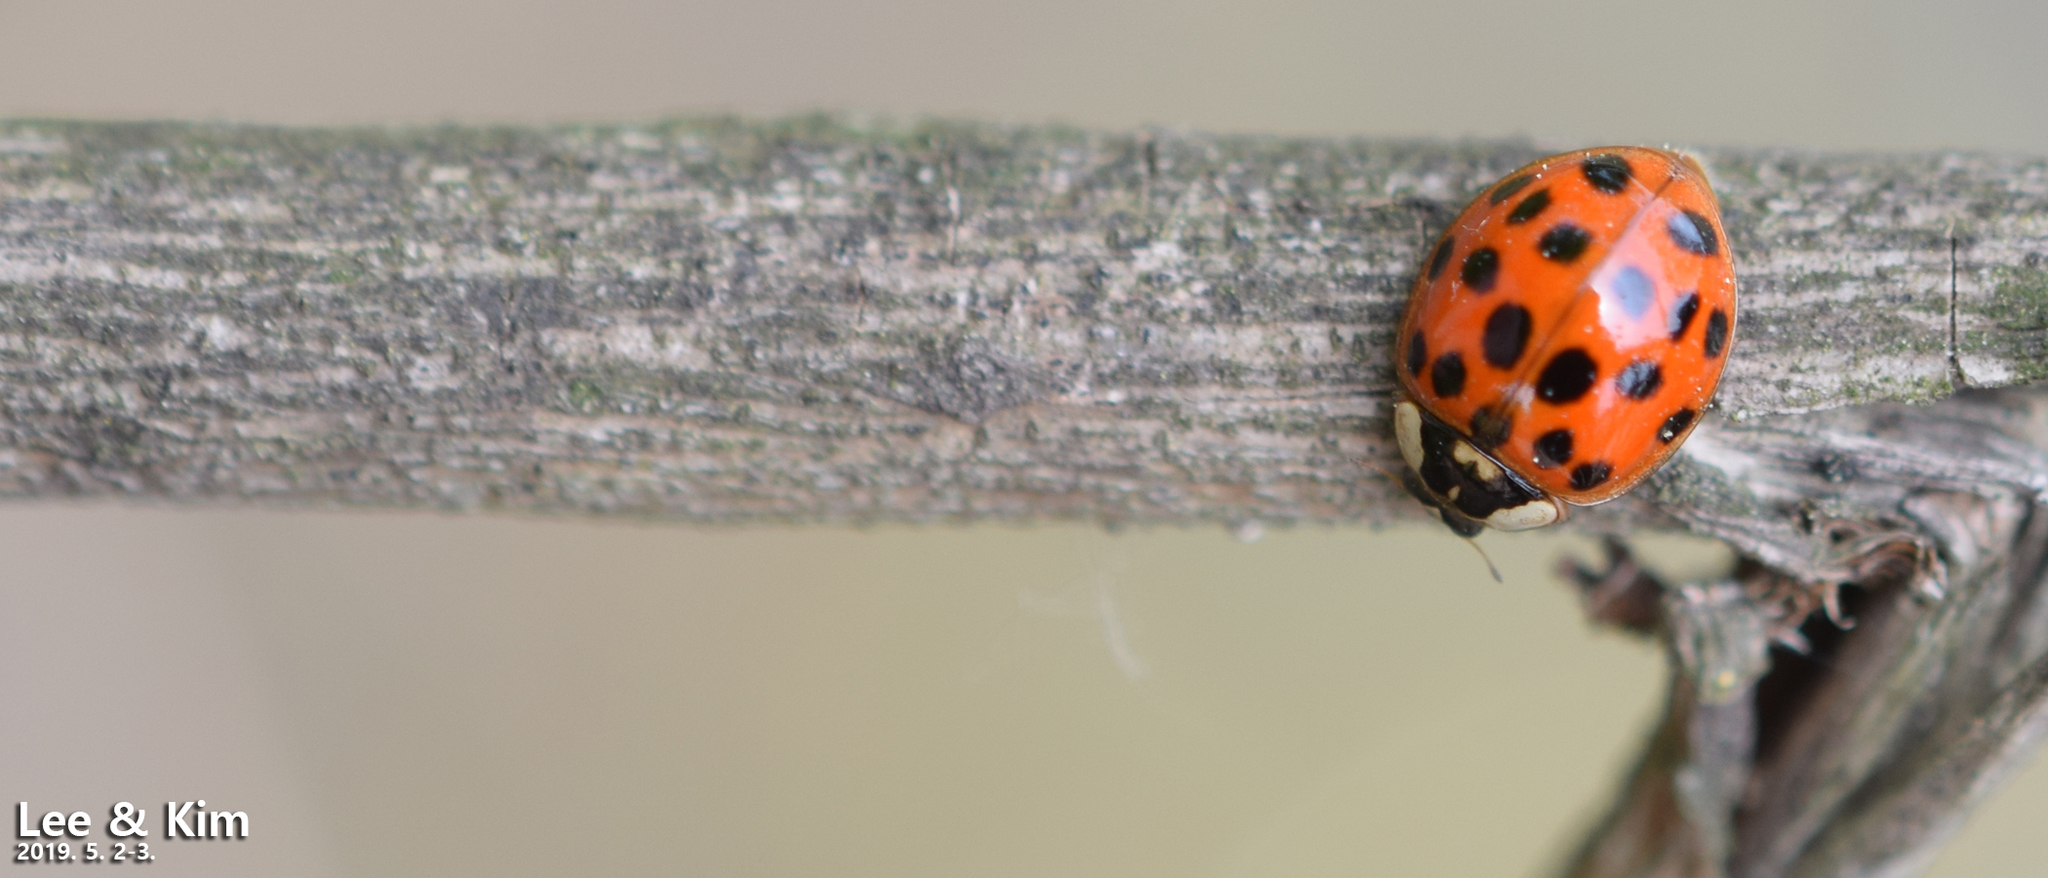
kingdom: Animalia
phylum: Arthropoda
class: Insecta
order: Coleoptera
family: Coccinellidae
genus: Harmonia
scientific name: Harmonia axyridis
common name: Harlequin ladybird
